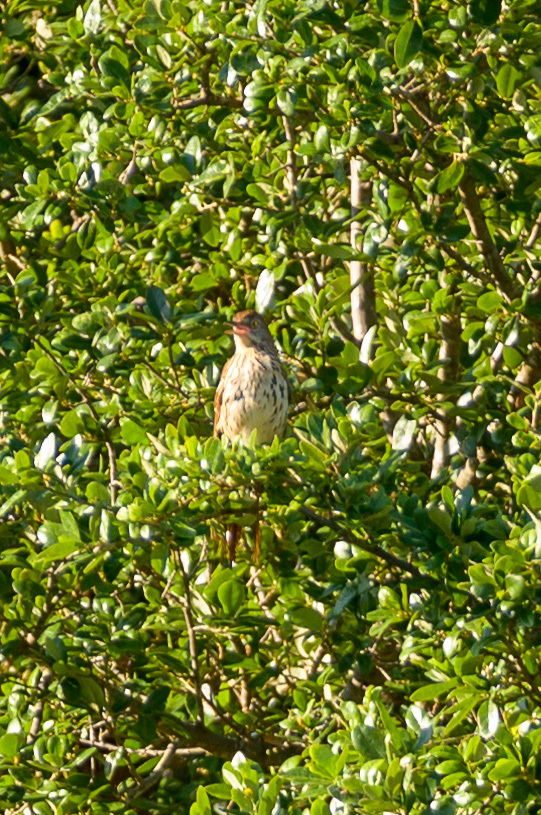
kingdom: Animalia
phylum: Chordata
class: Aves
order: Passeriformes
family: Mimidae
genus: Toxostoma
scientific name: Toxostoma rufum
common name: Brown thrasher
